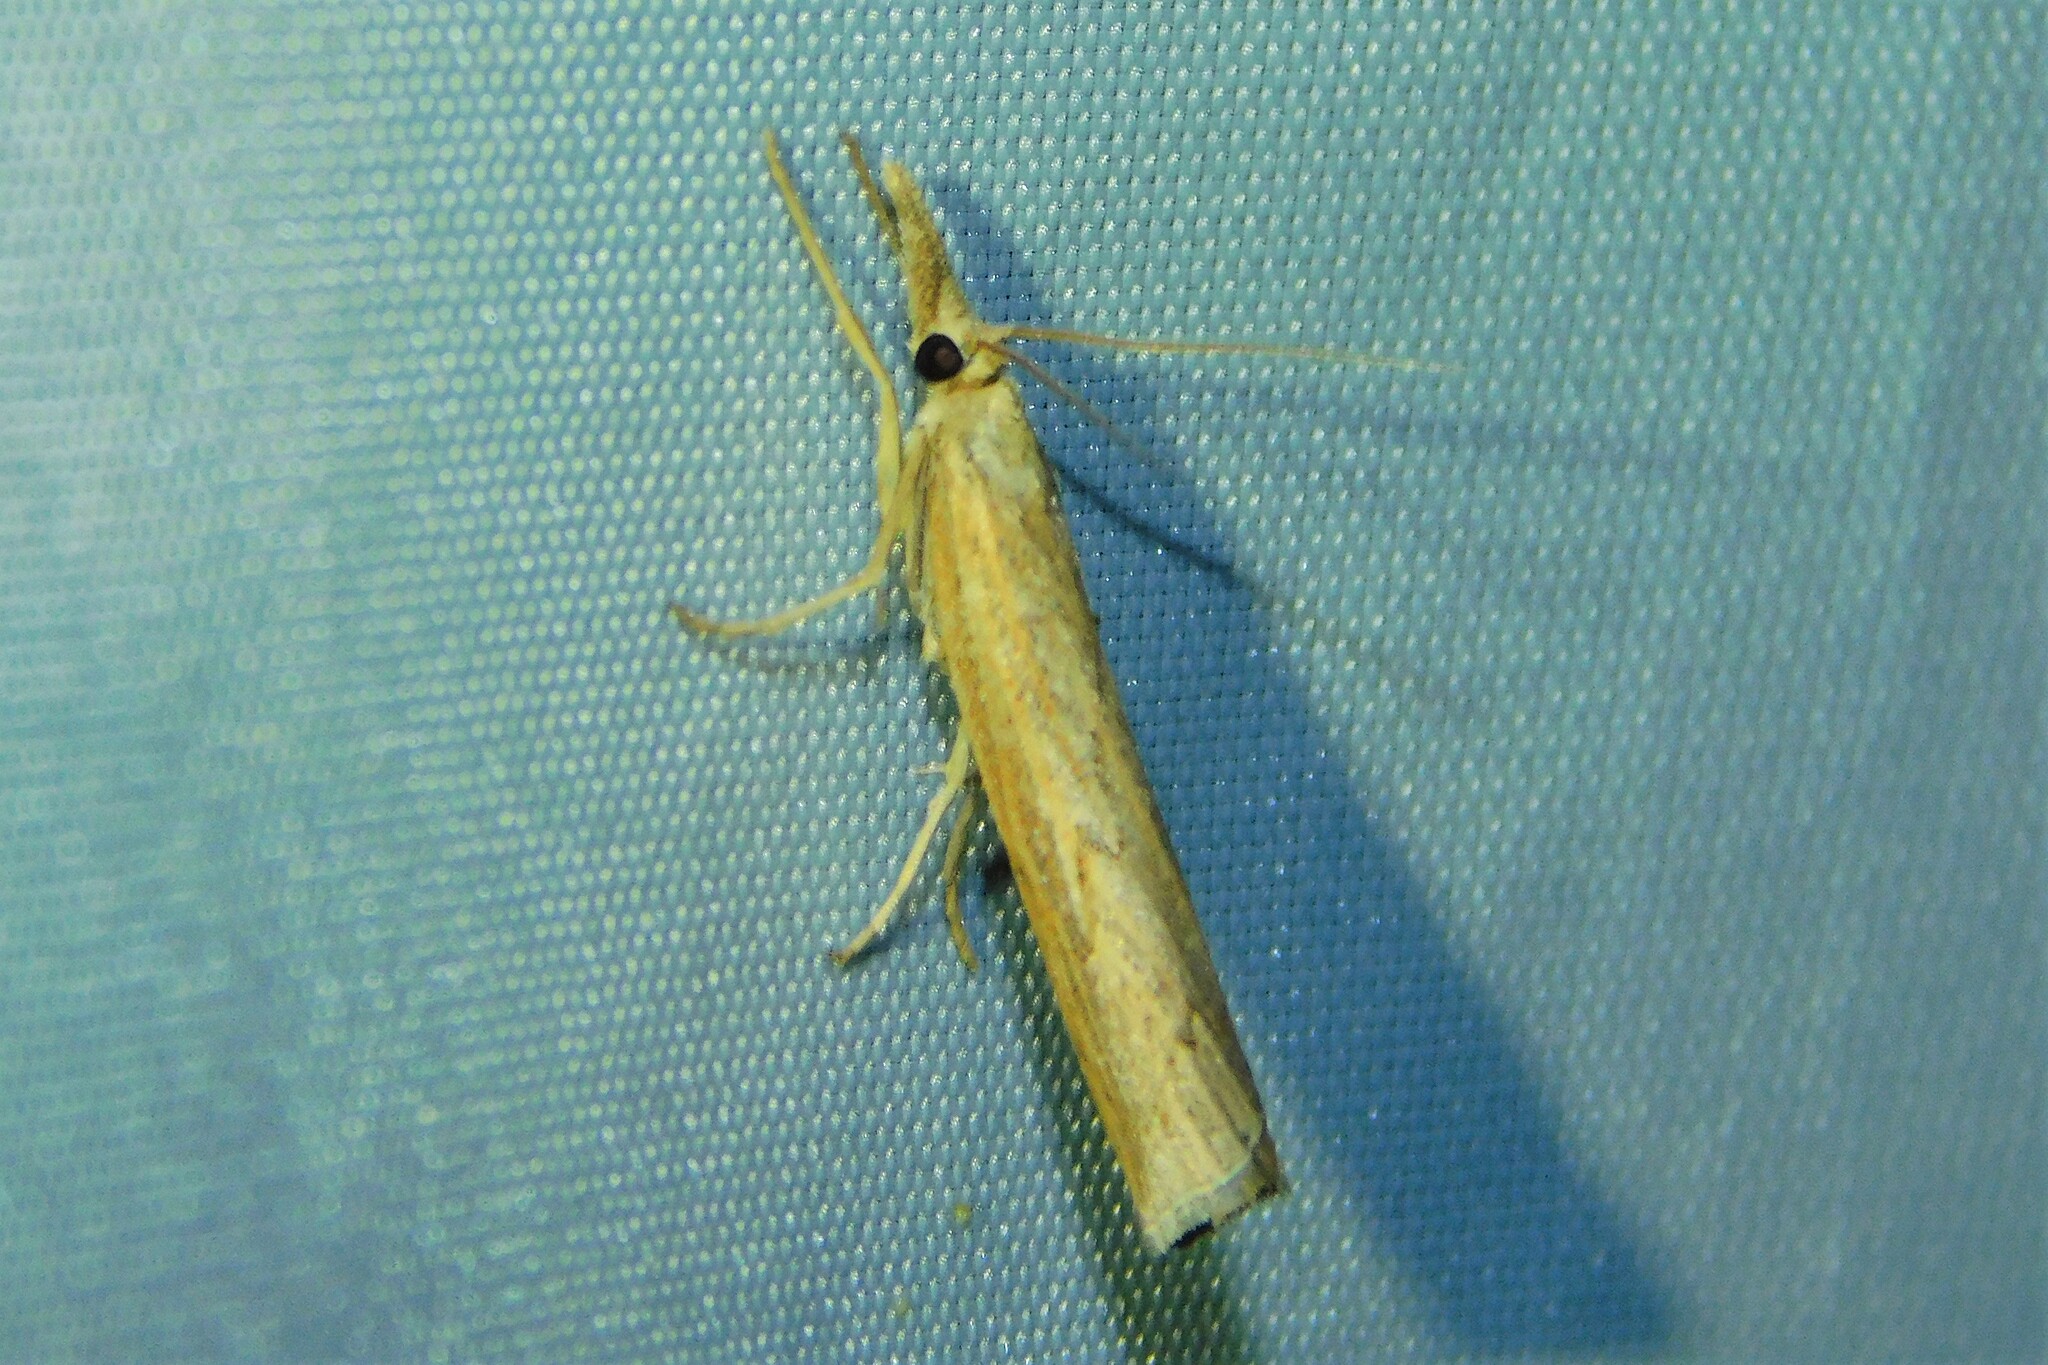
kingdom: Animalia
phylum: Arthropoda
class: Insecta
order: Lepidoptera
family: Crambidae
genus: Pediasia
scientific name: Pediasia contaminella
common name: Waste grass-veneer
